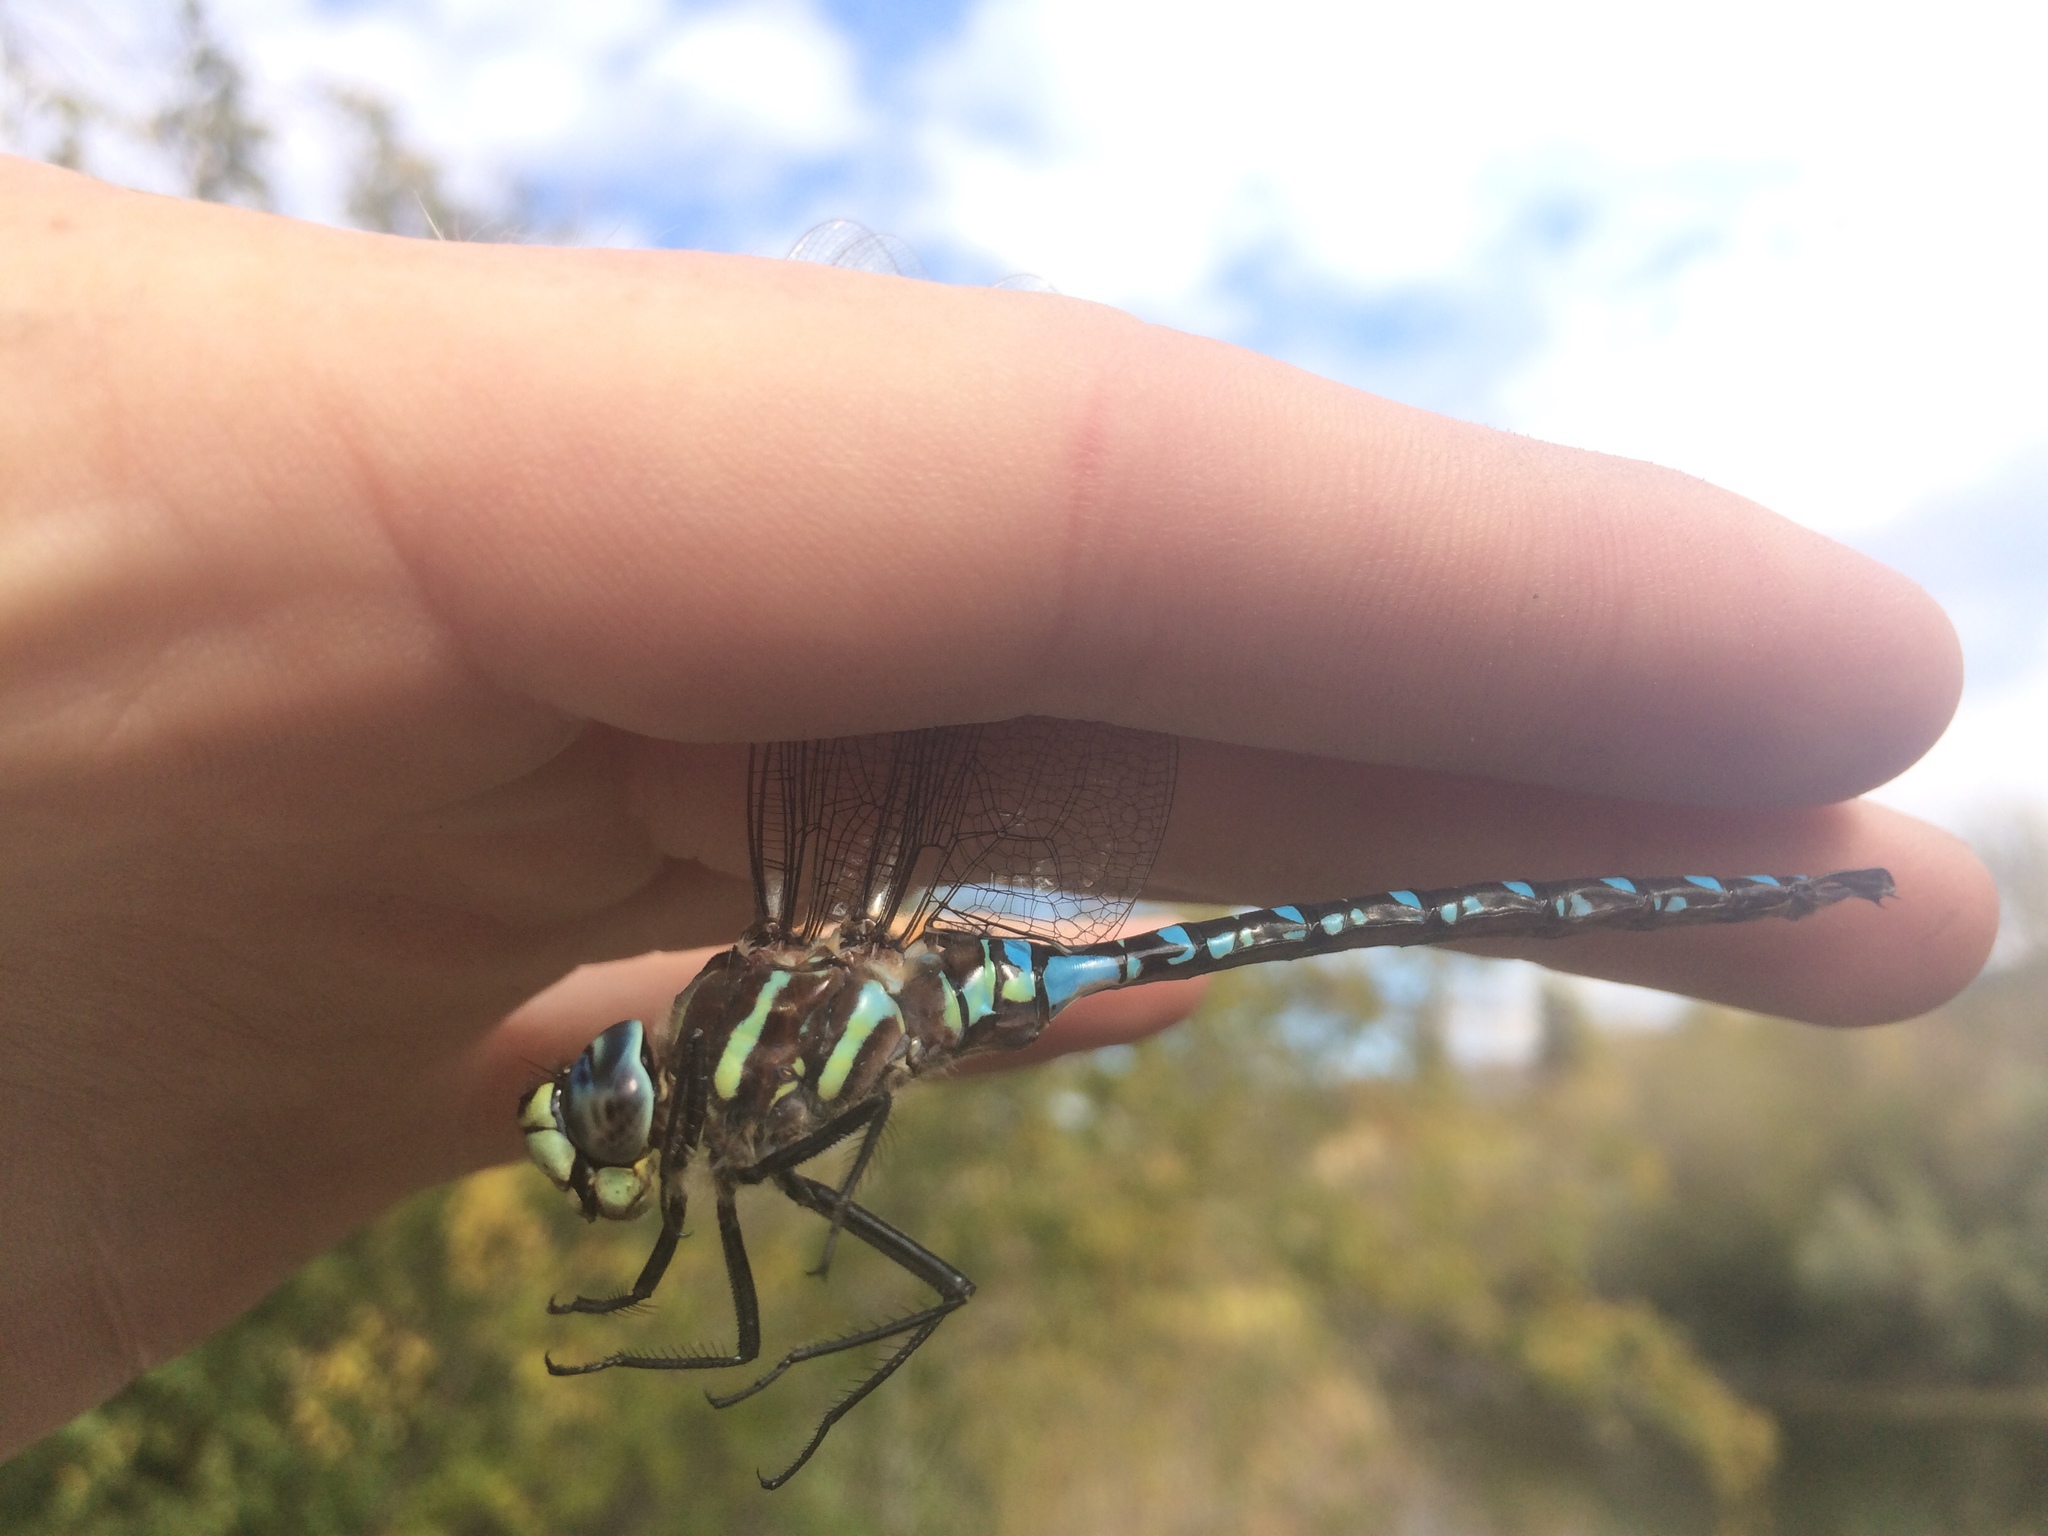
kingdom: Animalia
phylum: Arthropoda
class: Insecta
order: Odonata
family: Aeshnidae
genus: Aeshna
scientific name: Aeshna palmata
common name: Paddle-tailed darner
